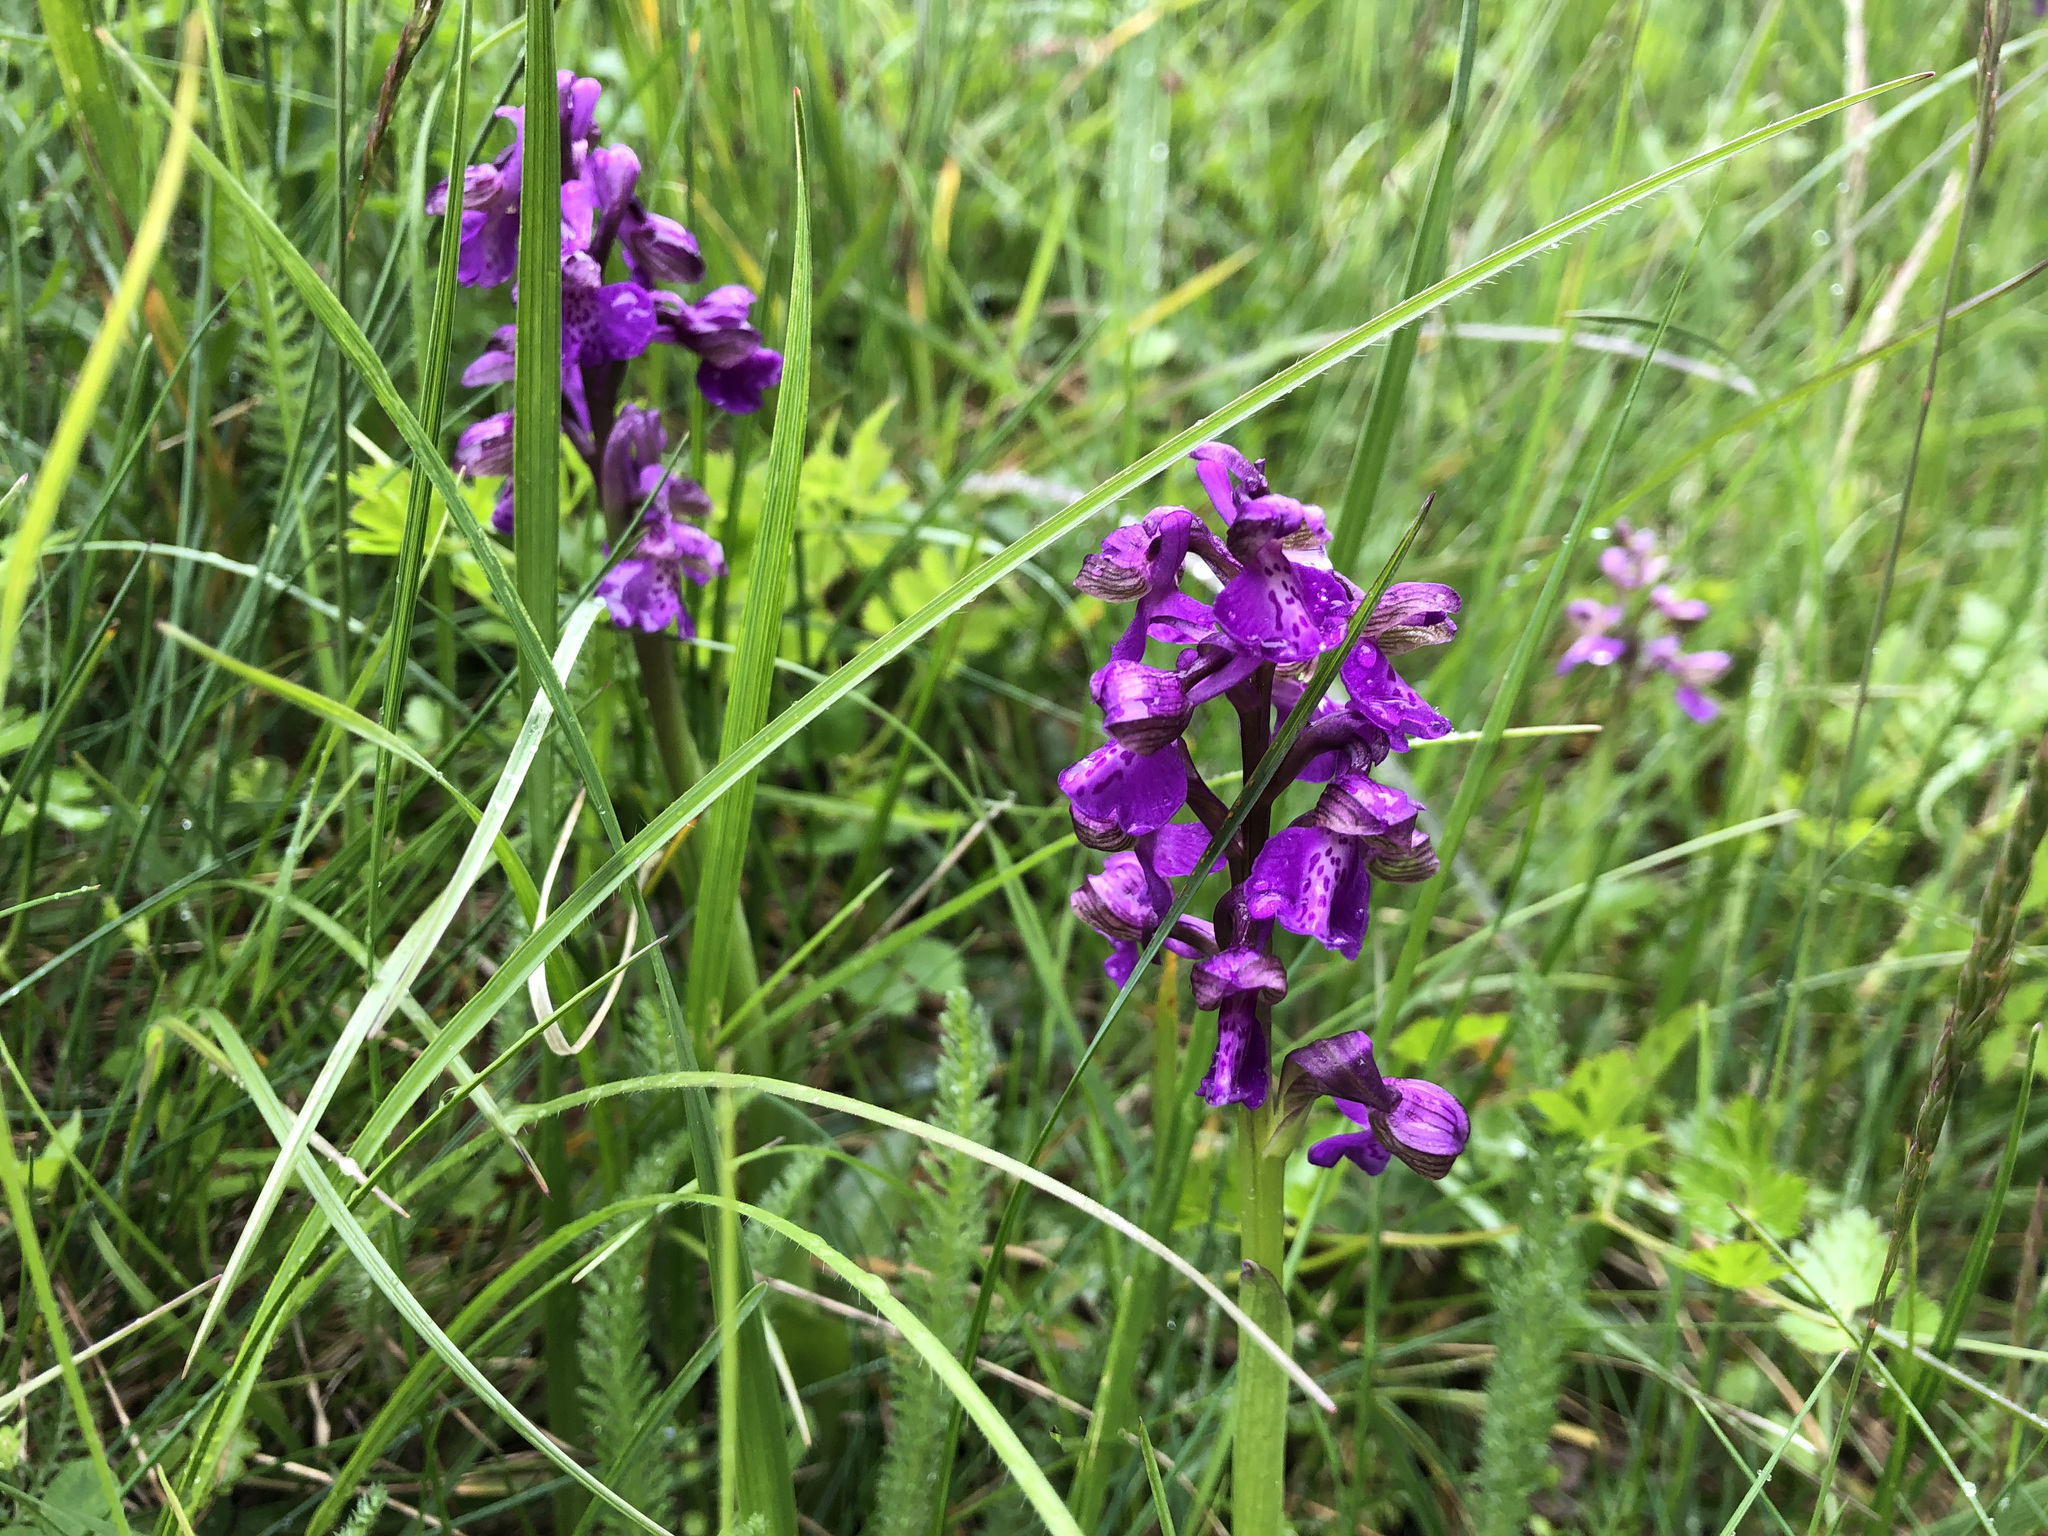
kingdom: Plantae
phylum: Tracheophyta
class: Liliopsida
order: Asparagales
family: Orchidaceae
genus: Anacamptis
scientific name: Anacamptis morio
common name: Green-winged orchid
